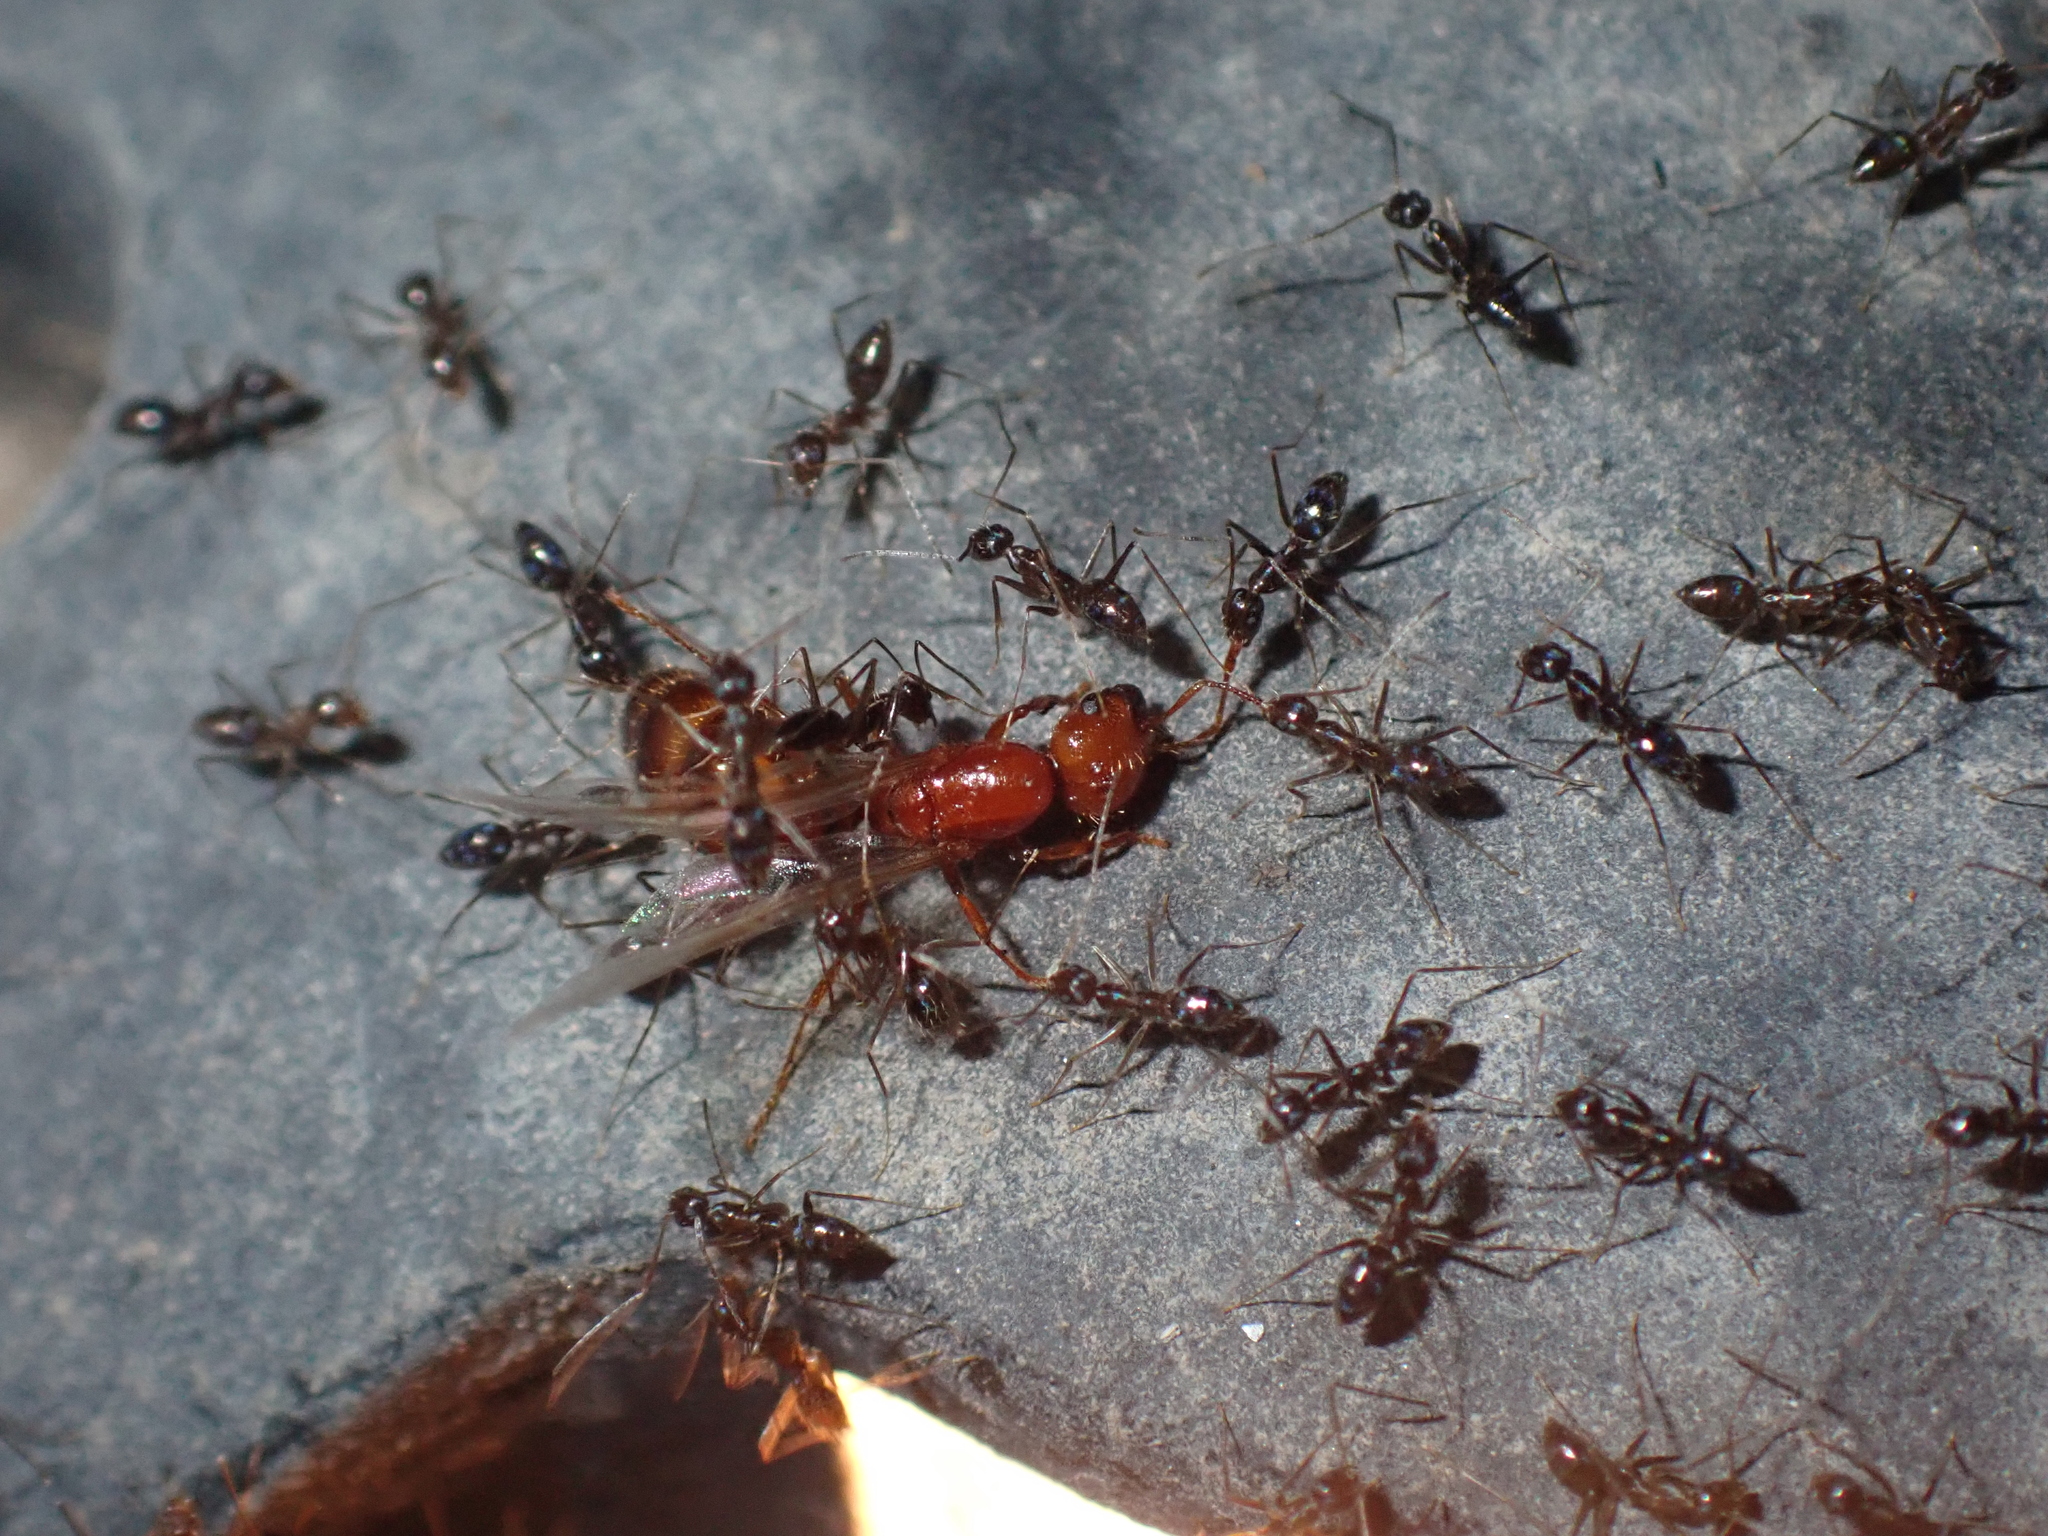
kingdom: Animalia
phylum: Arthropoda
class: Insecta
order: Hymenoptera
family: Formicidae
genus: Paratrechina
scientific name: Paratrechina longicornis
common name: Longhorned crazy ant
